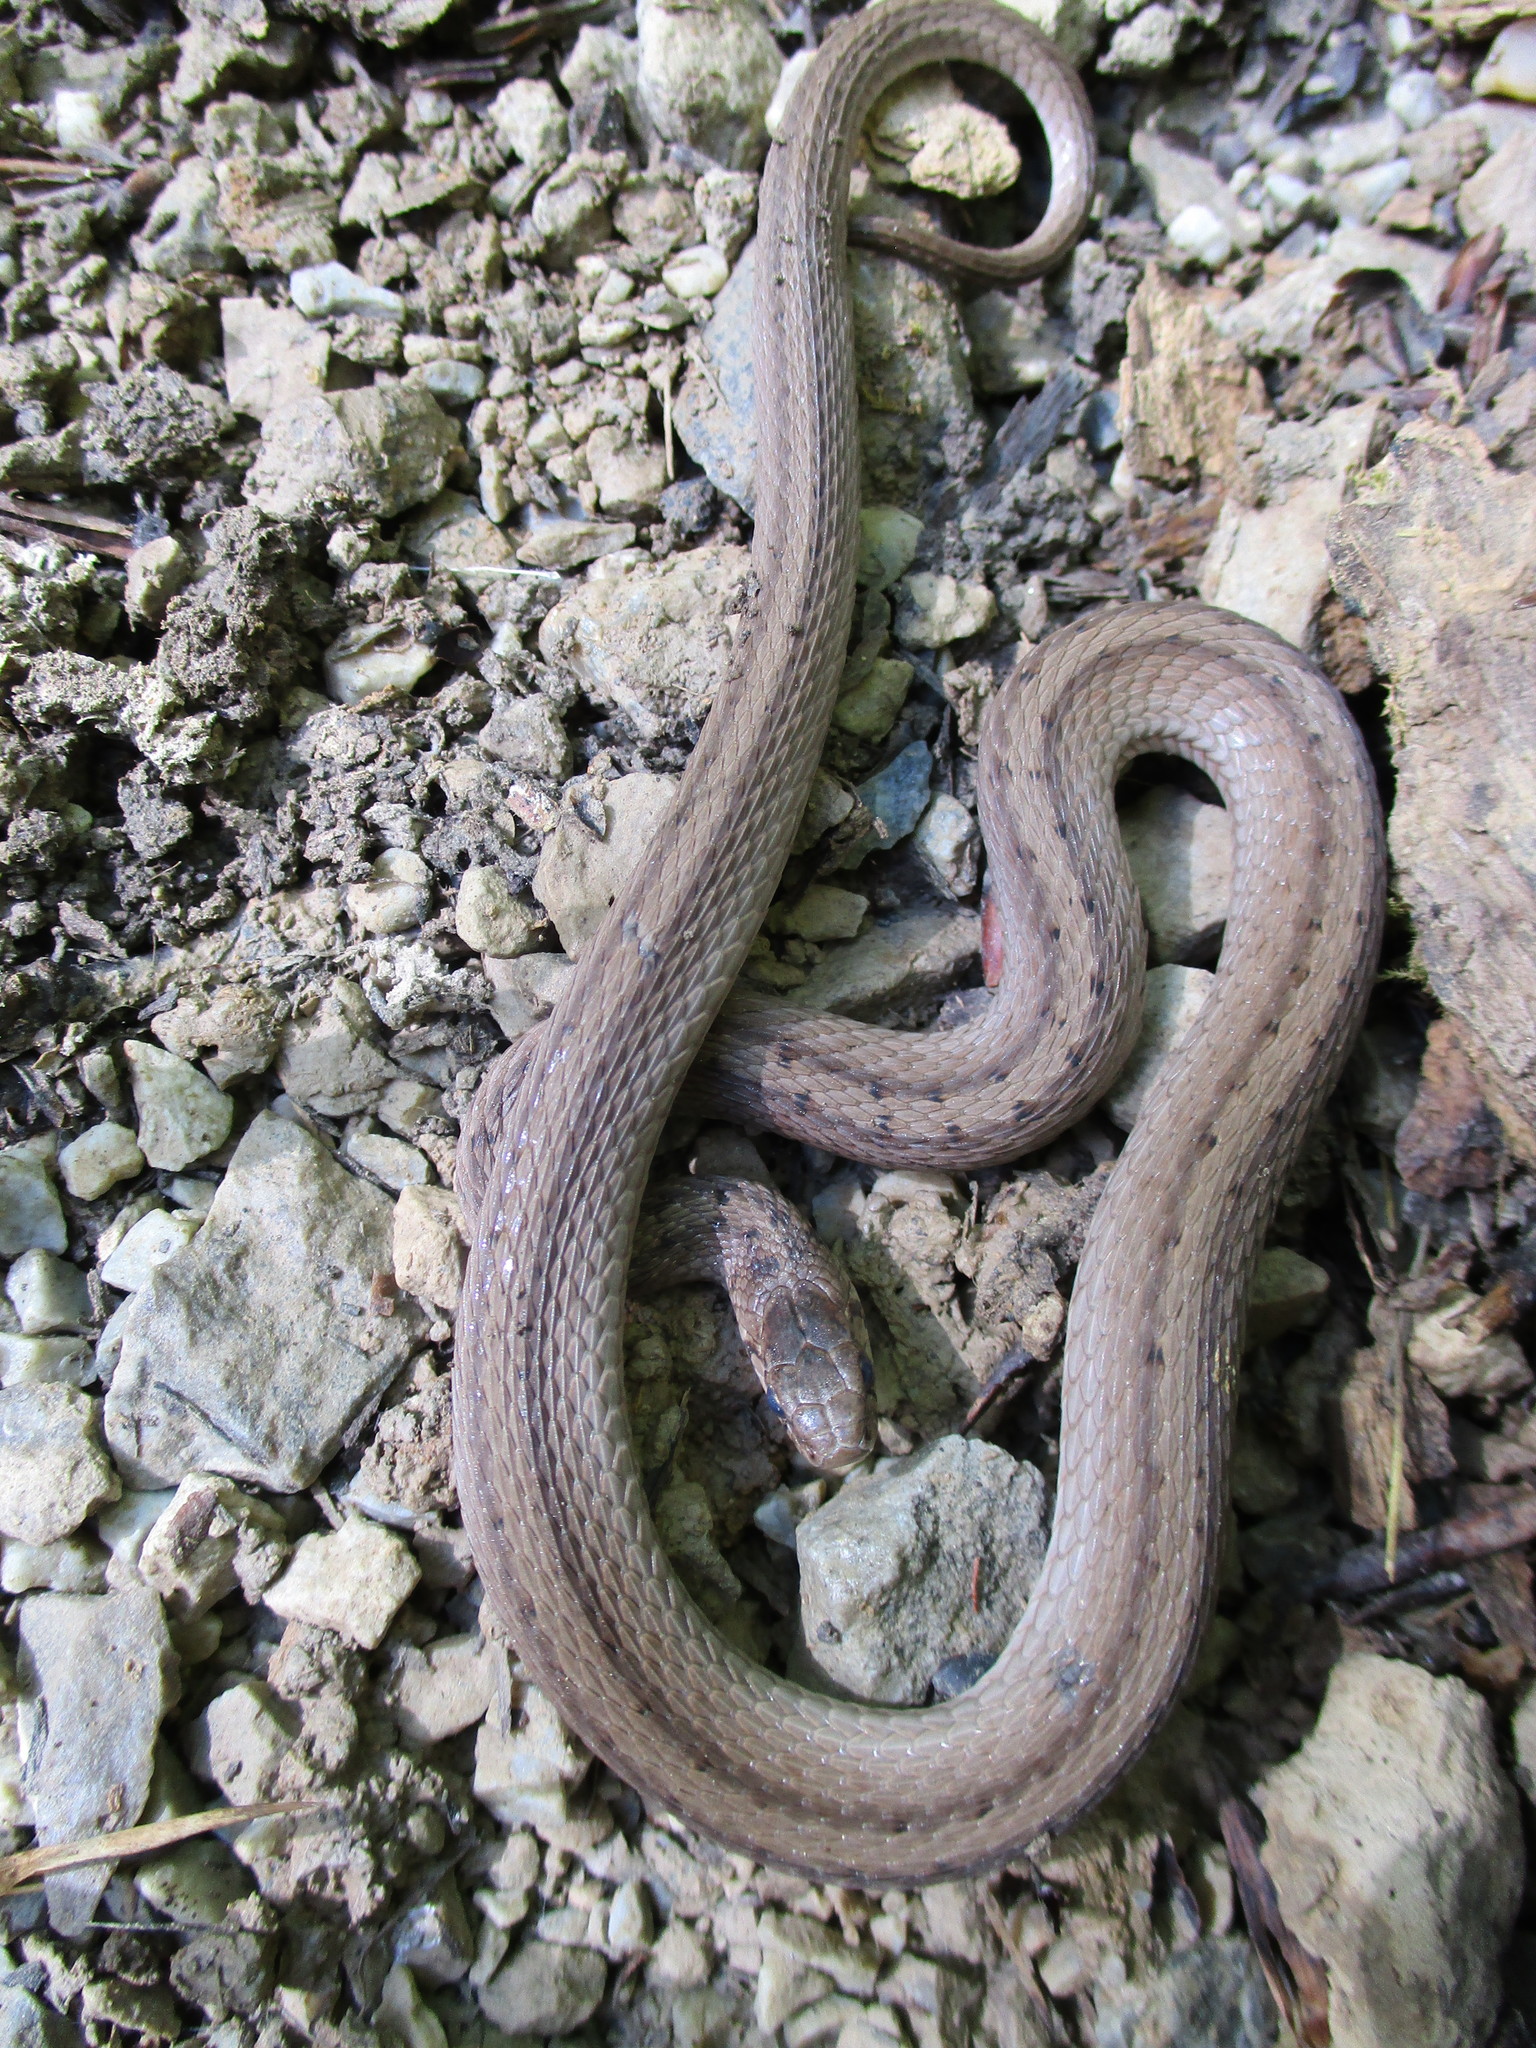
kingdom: Animalia
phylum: Chordata
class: Squamata
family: Colubridae
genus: Storeria
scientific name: Storeria dekayi
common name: (dekay’s) brown snake
